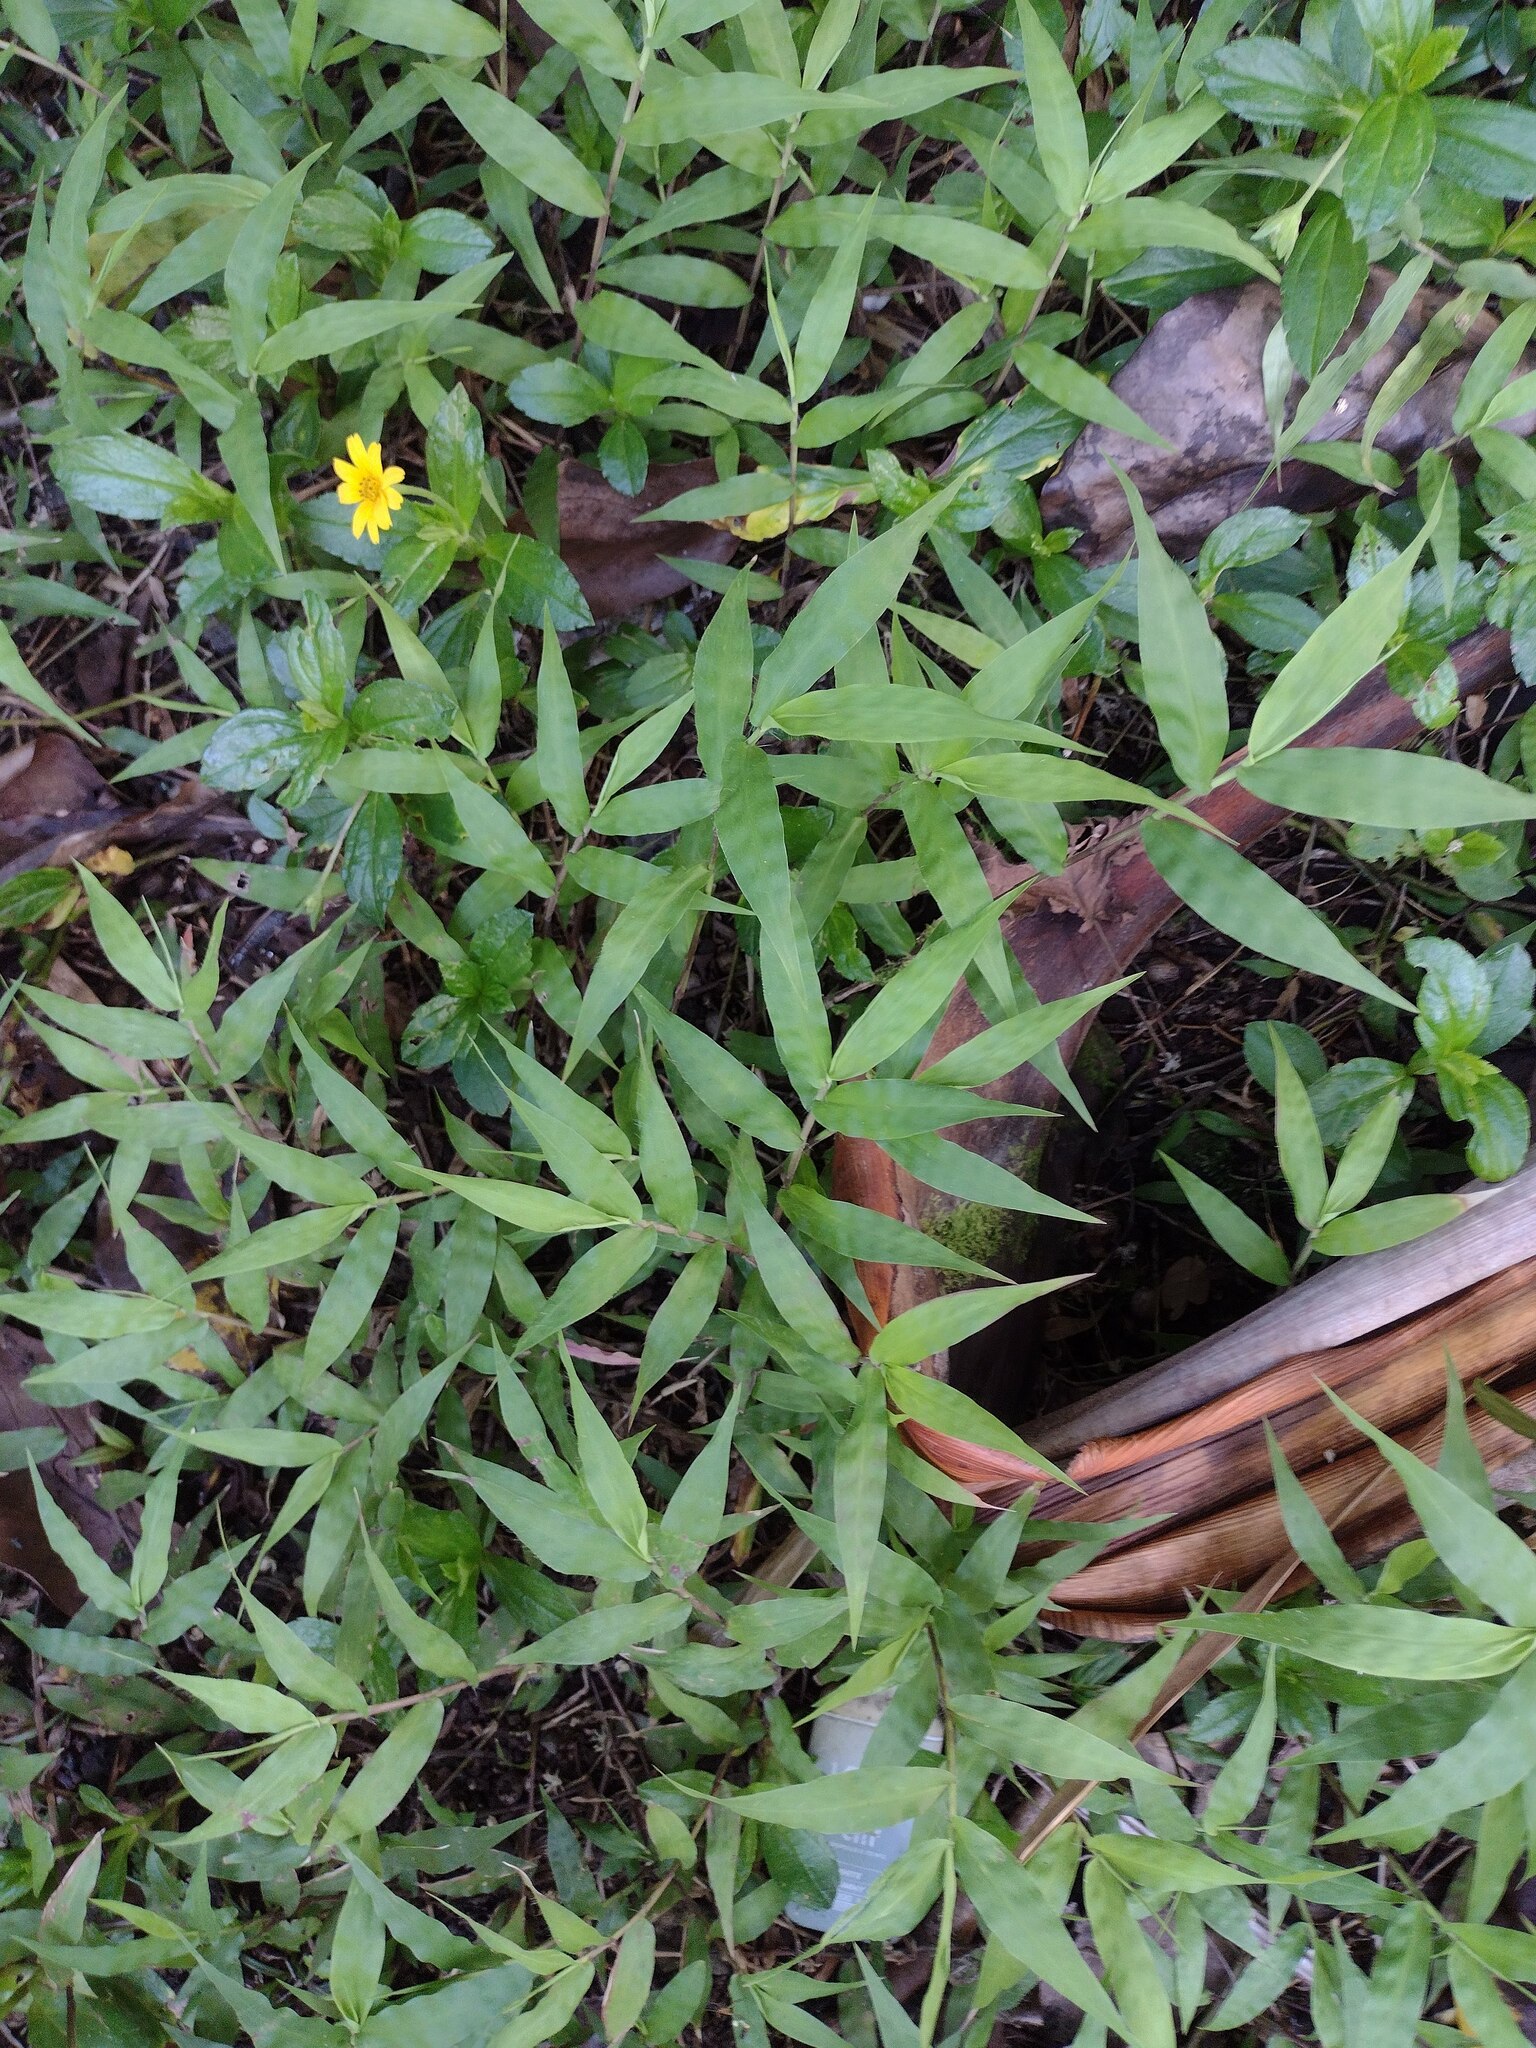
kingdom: Plantae
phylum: Tracheophyta
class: Liliopsida
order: Poales
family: Poaceae
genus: Oplismenus
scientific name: Oplismenus
